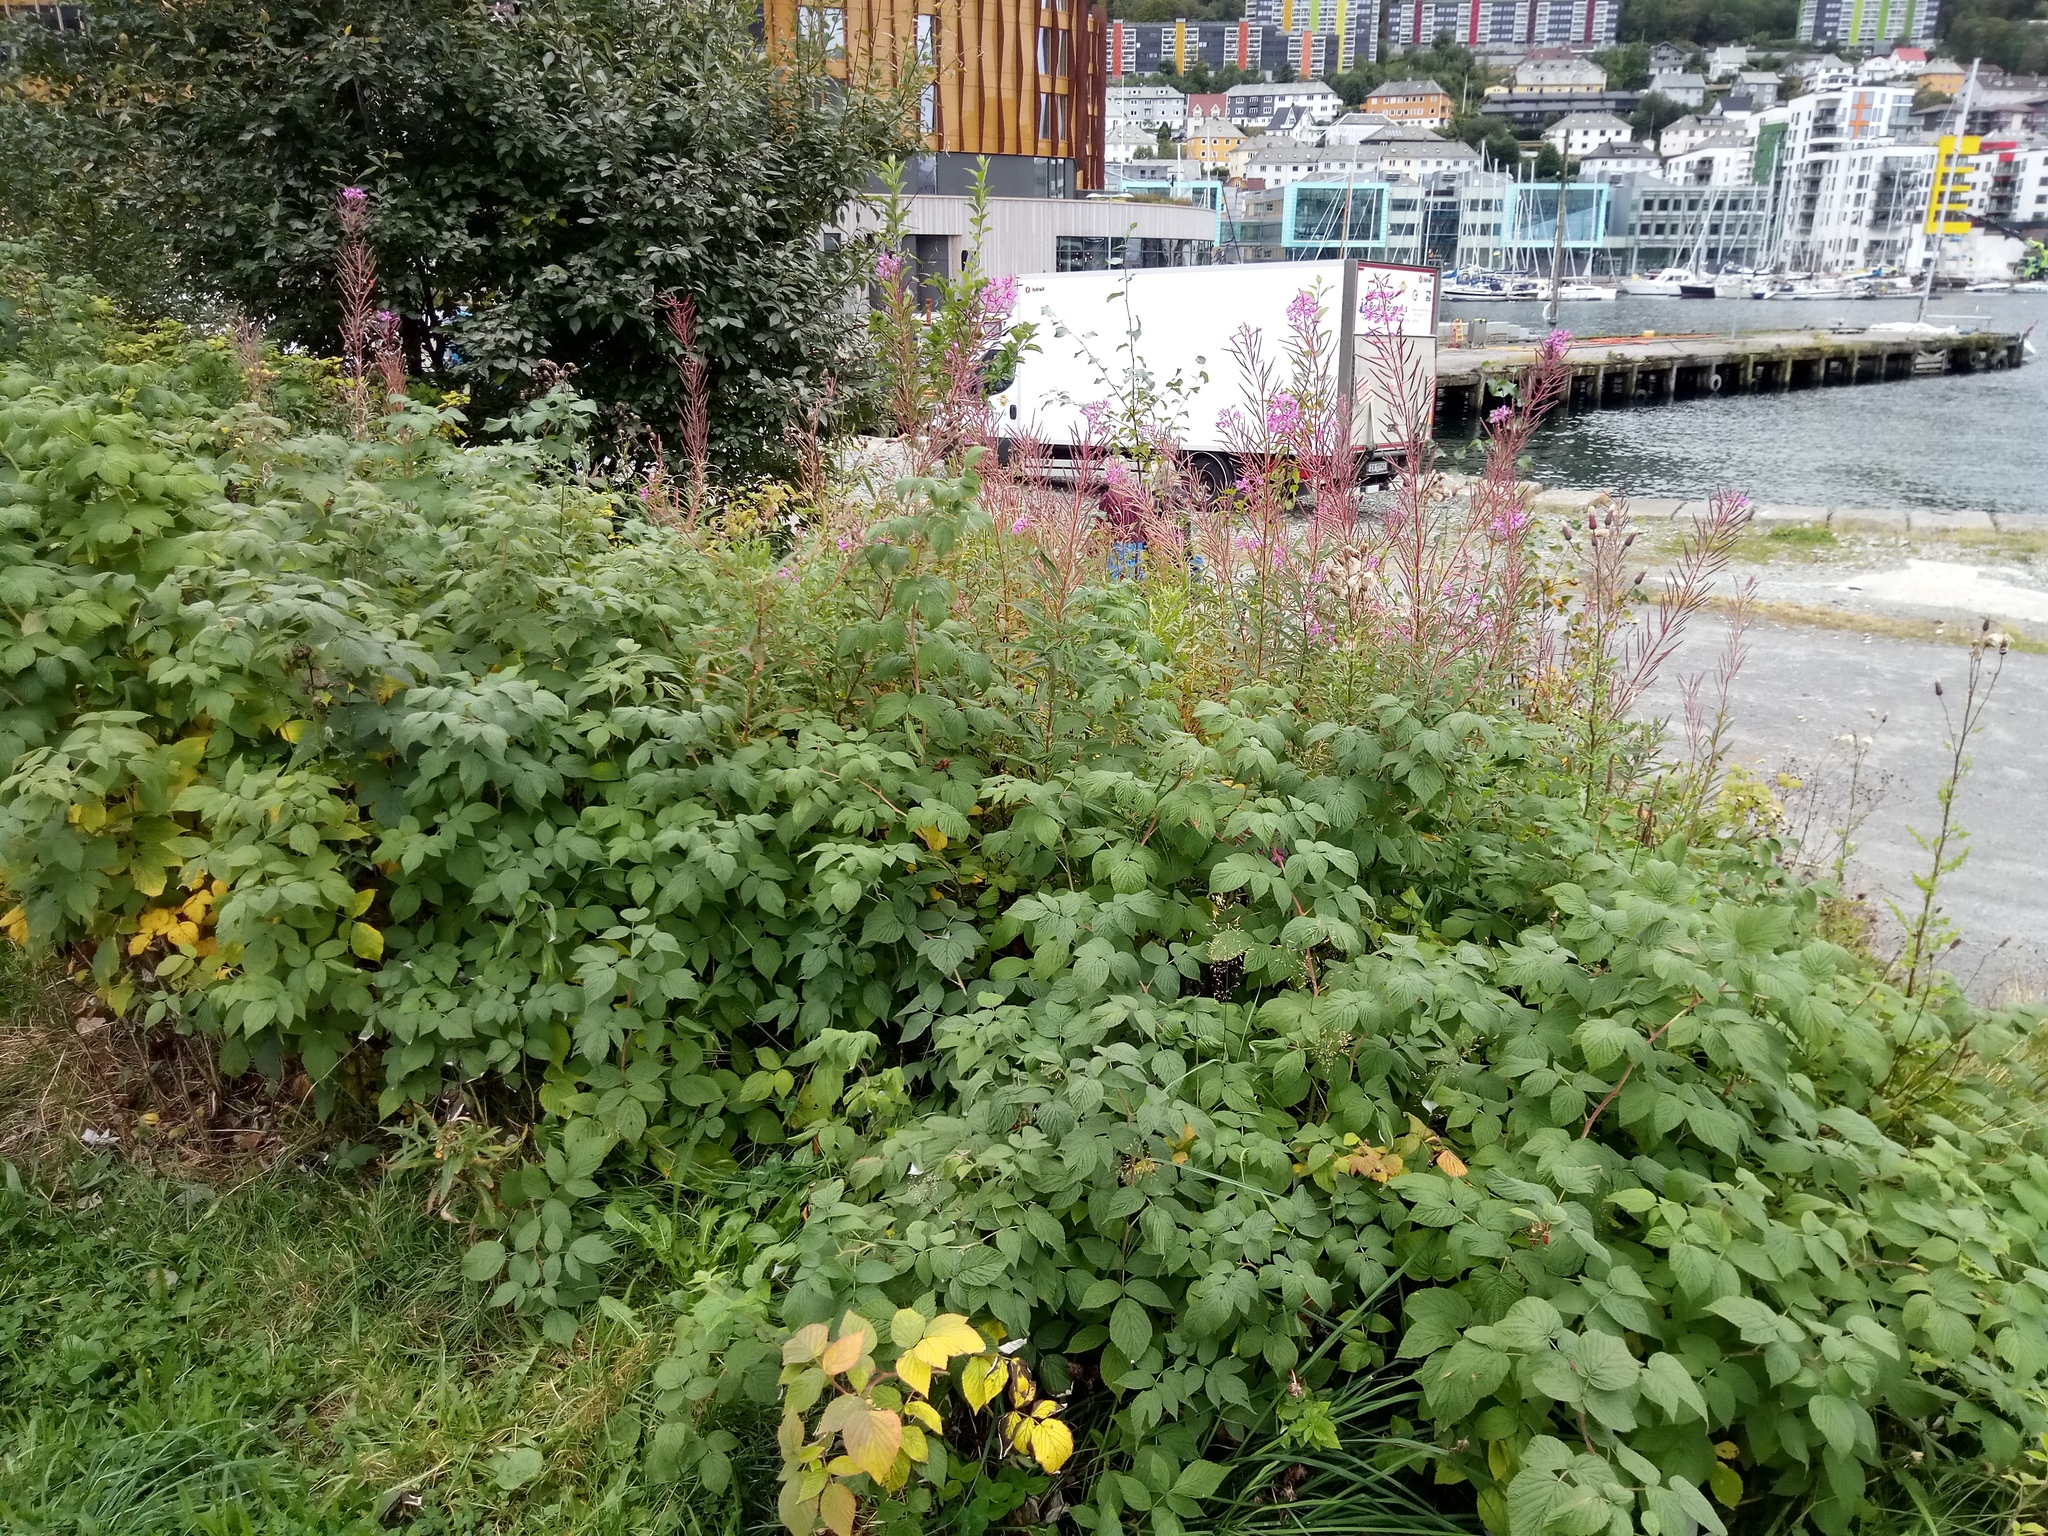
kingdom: Plantae
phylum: Tracheophyta
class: Magnoliopsida
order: Myrtales
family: Onagraceae
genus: Chamaenerion
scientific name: Chamaenerion angustifolium
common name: Fireweed
